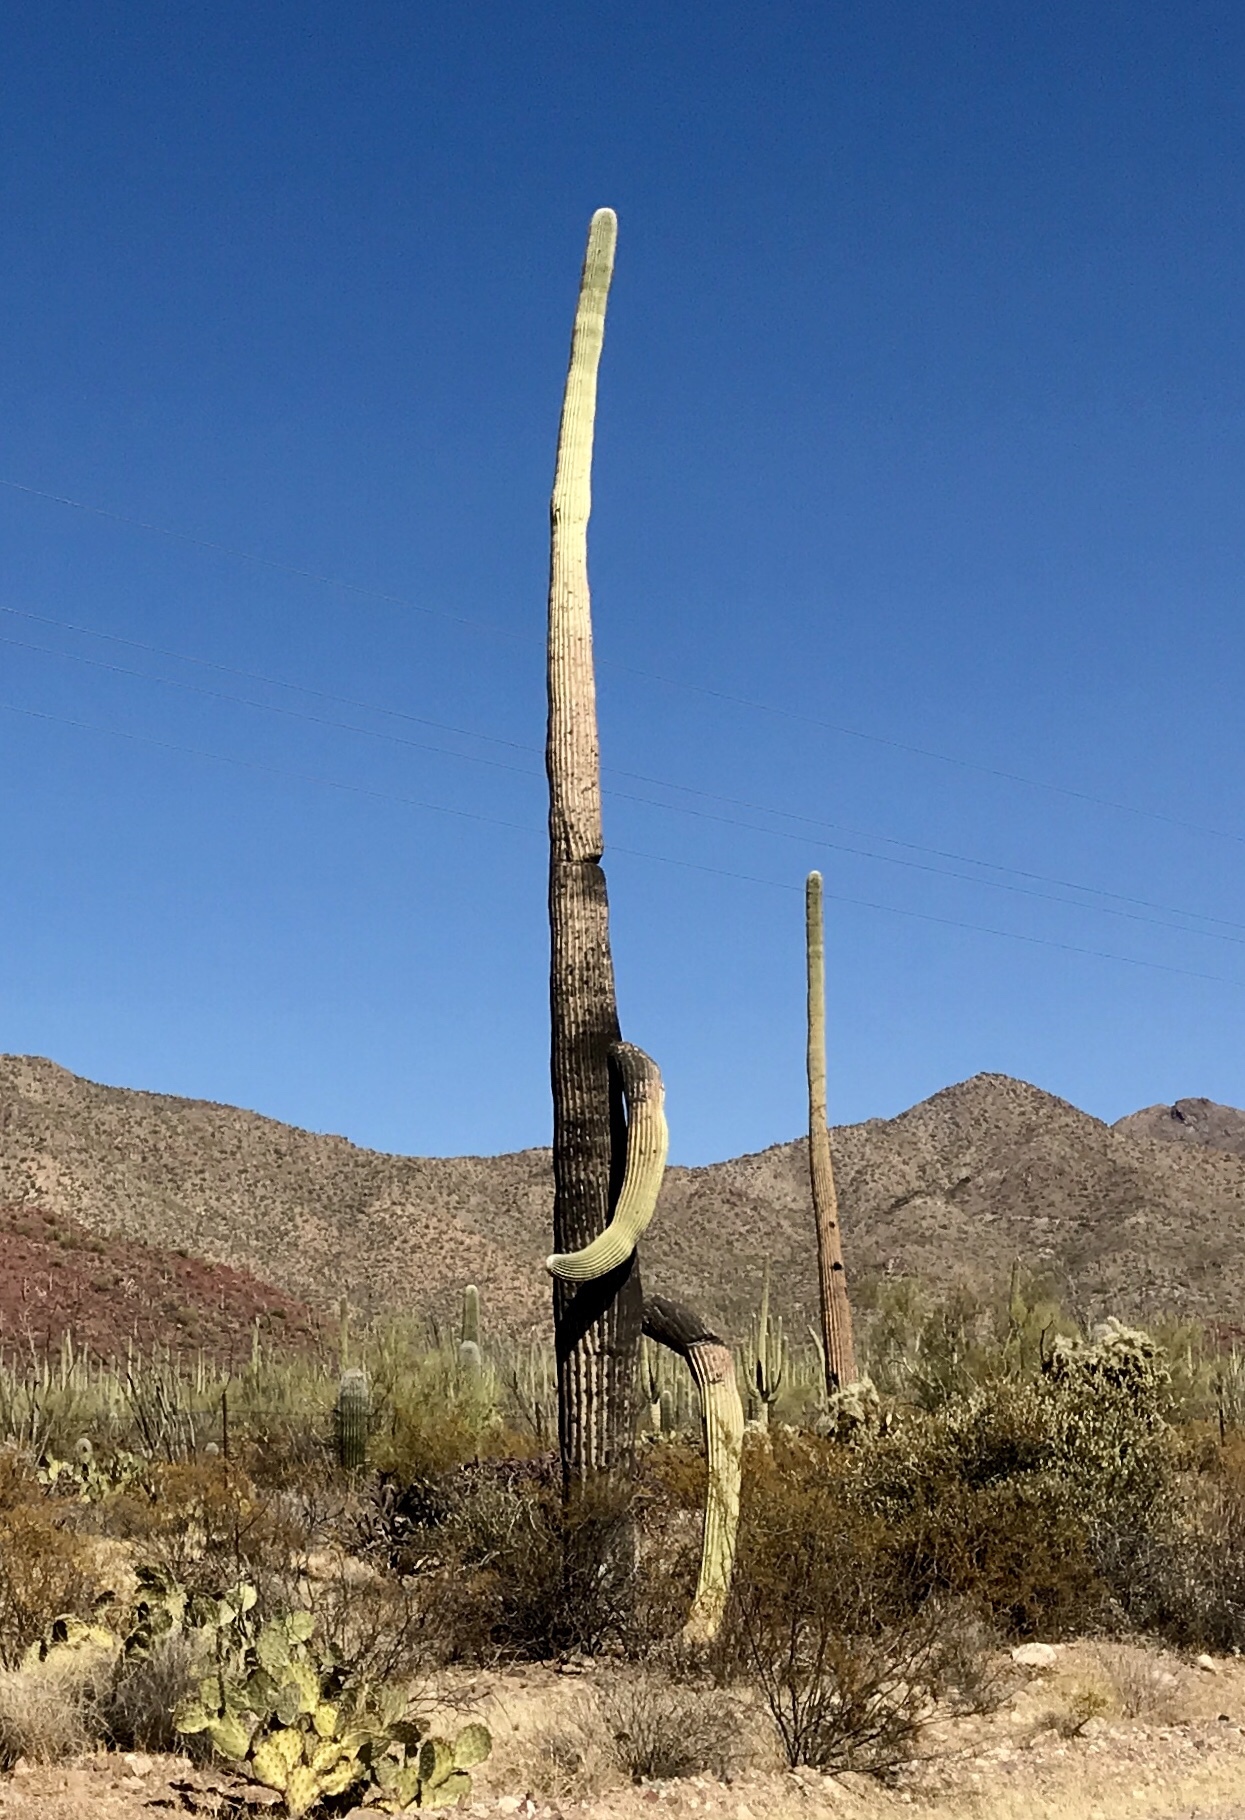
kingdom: Plantae
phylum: Tracheophyta
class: Magnoliopsida
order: Caryophyllales
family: Cactaceae
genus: Carnegiea
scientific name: Carnegiea gigantea
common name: Saguaro
